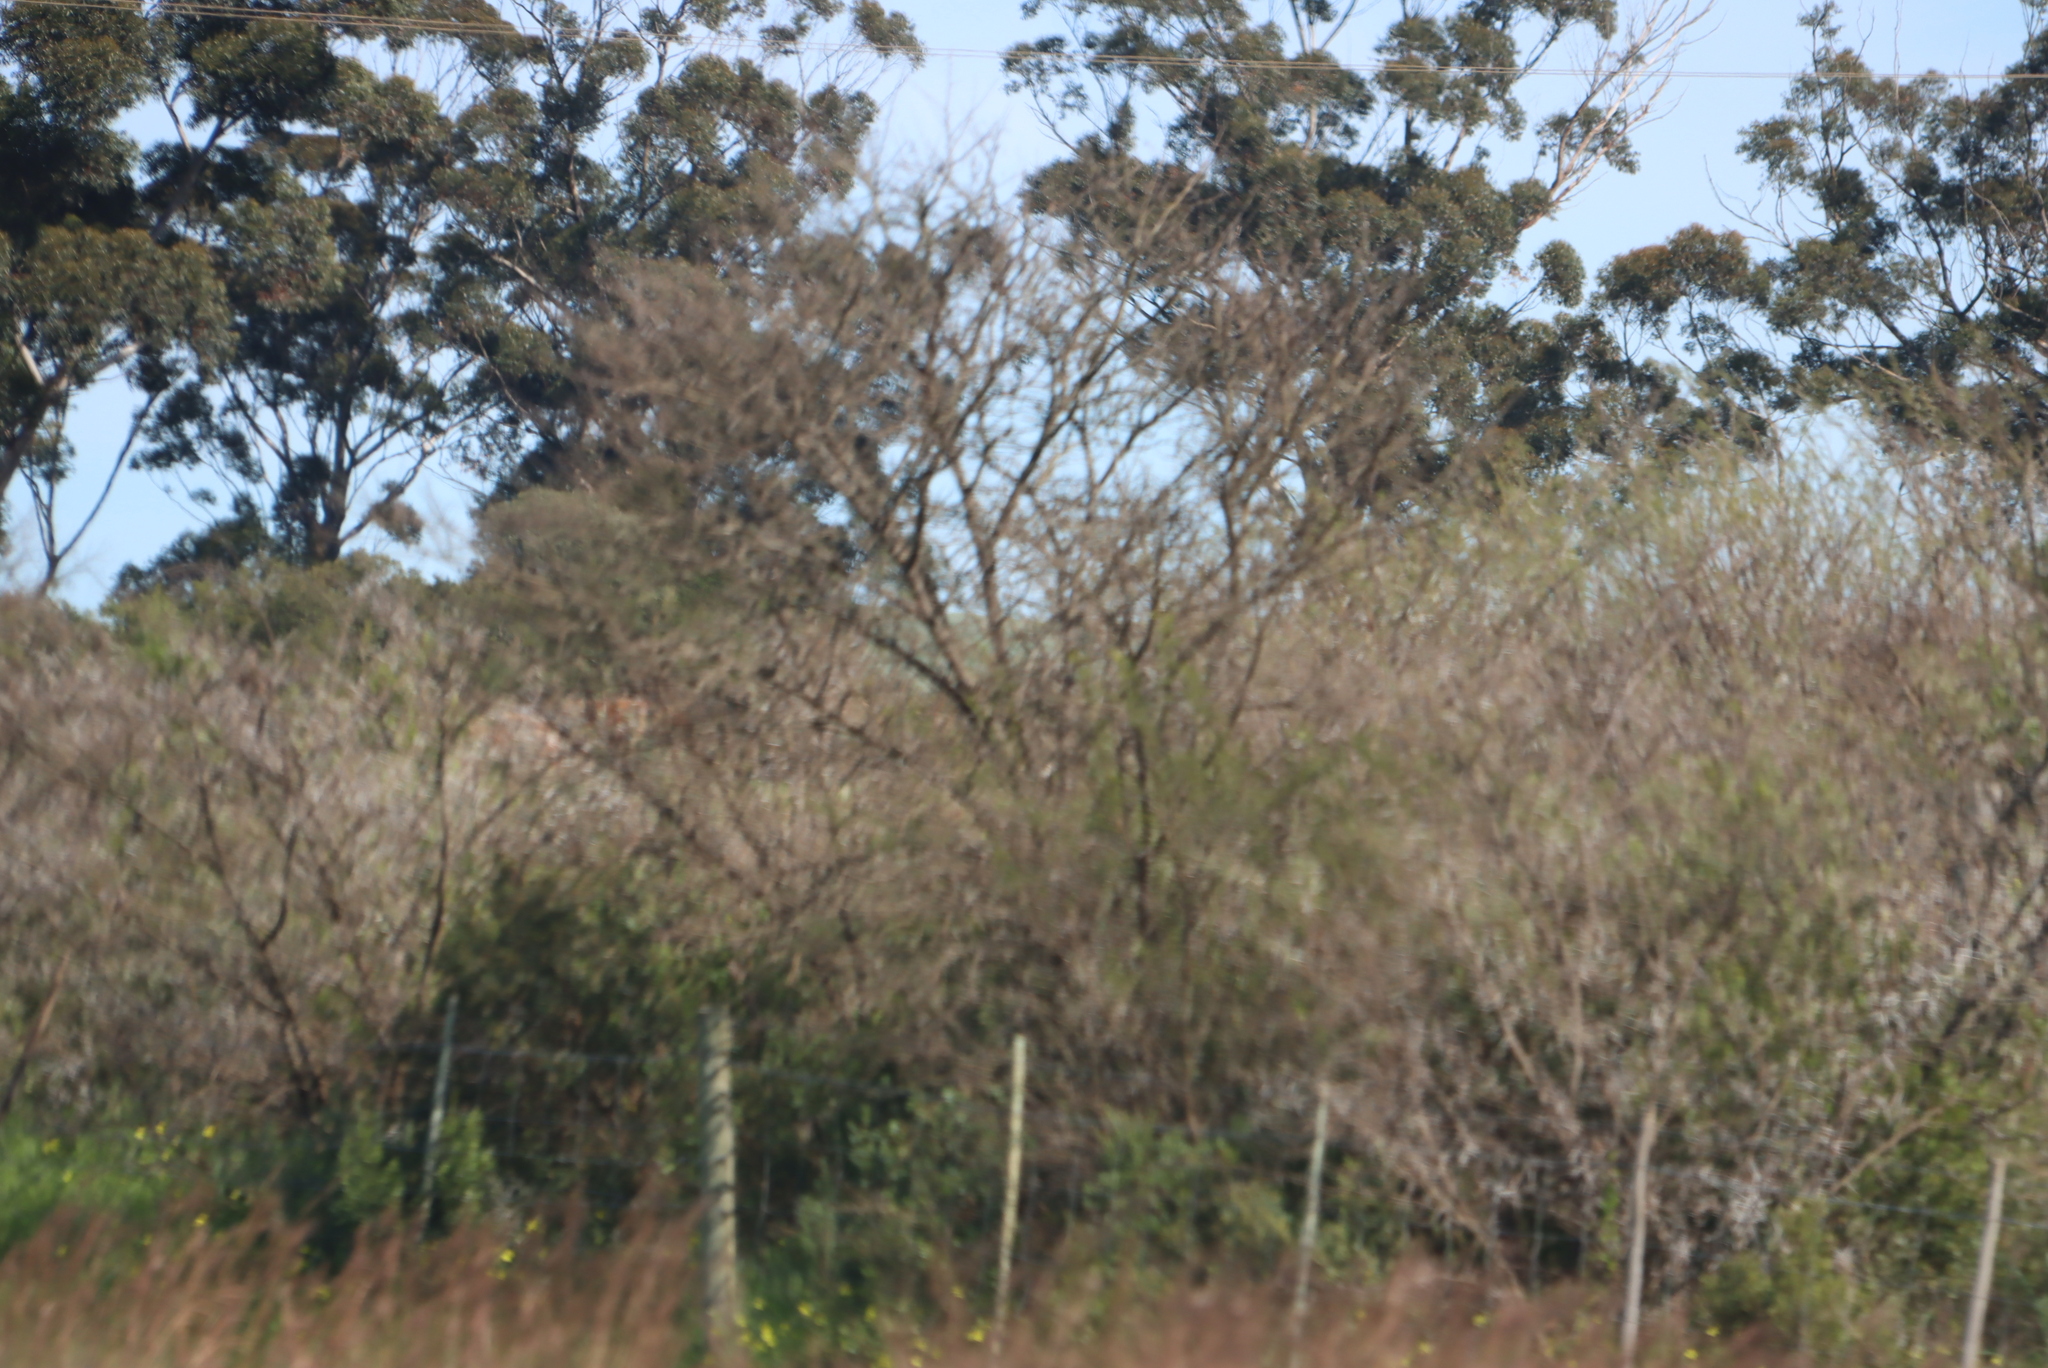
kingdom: Plantae
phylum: Tracheophyta
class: Magnoliopsida
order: Fabales
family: Fabaceae
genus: Vachellia
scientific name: Vachellia karroo
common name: Sweet thorn
